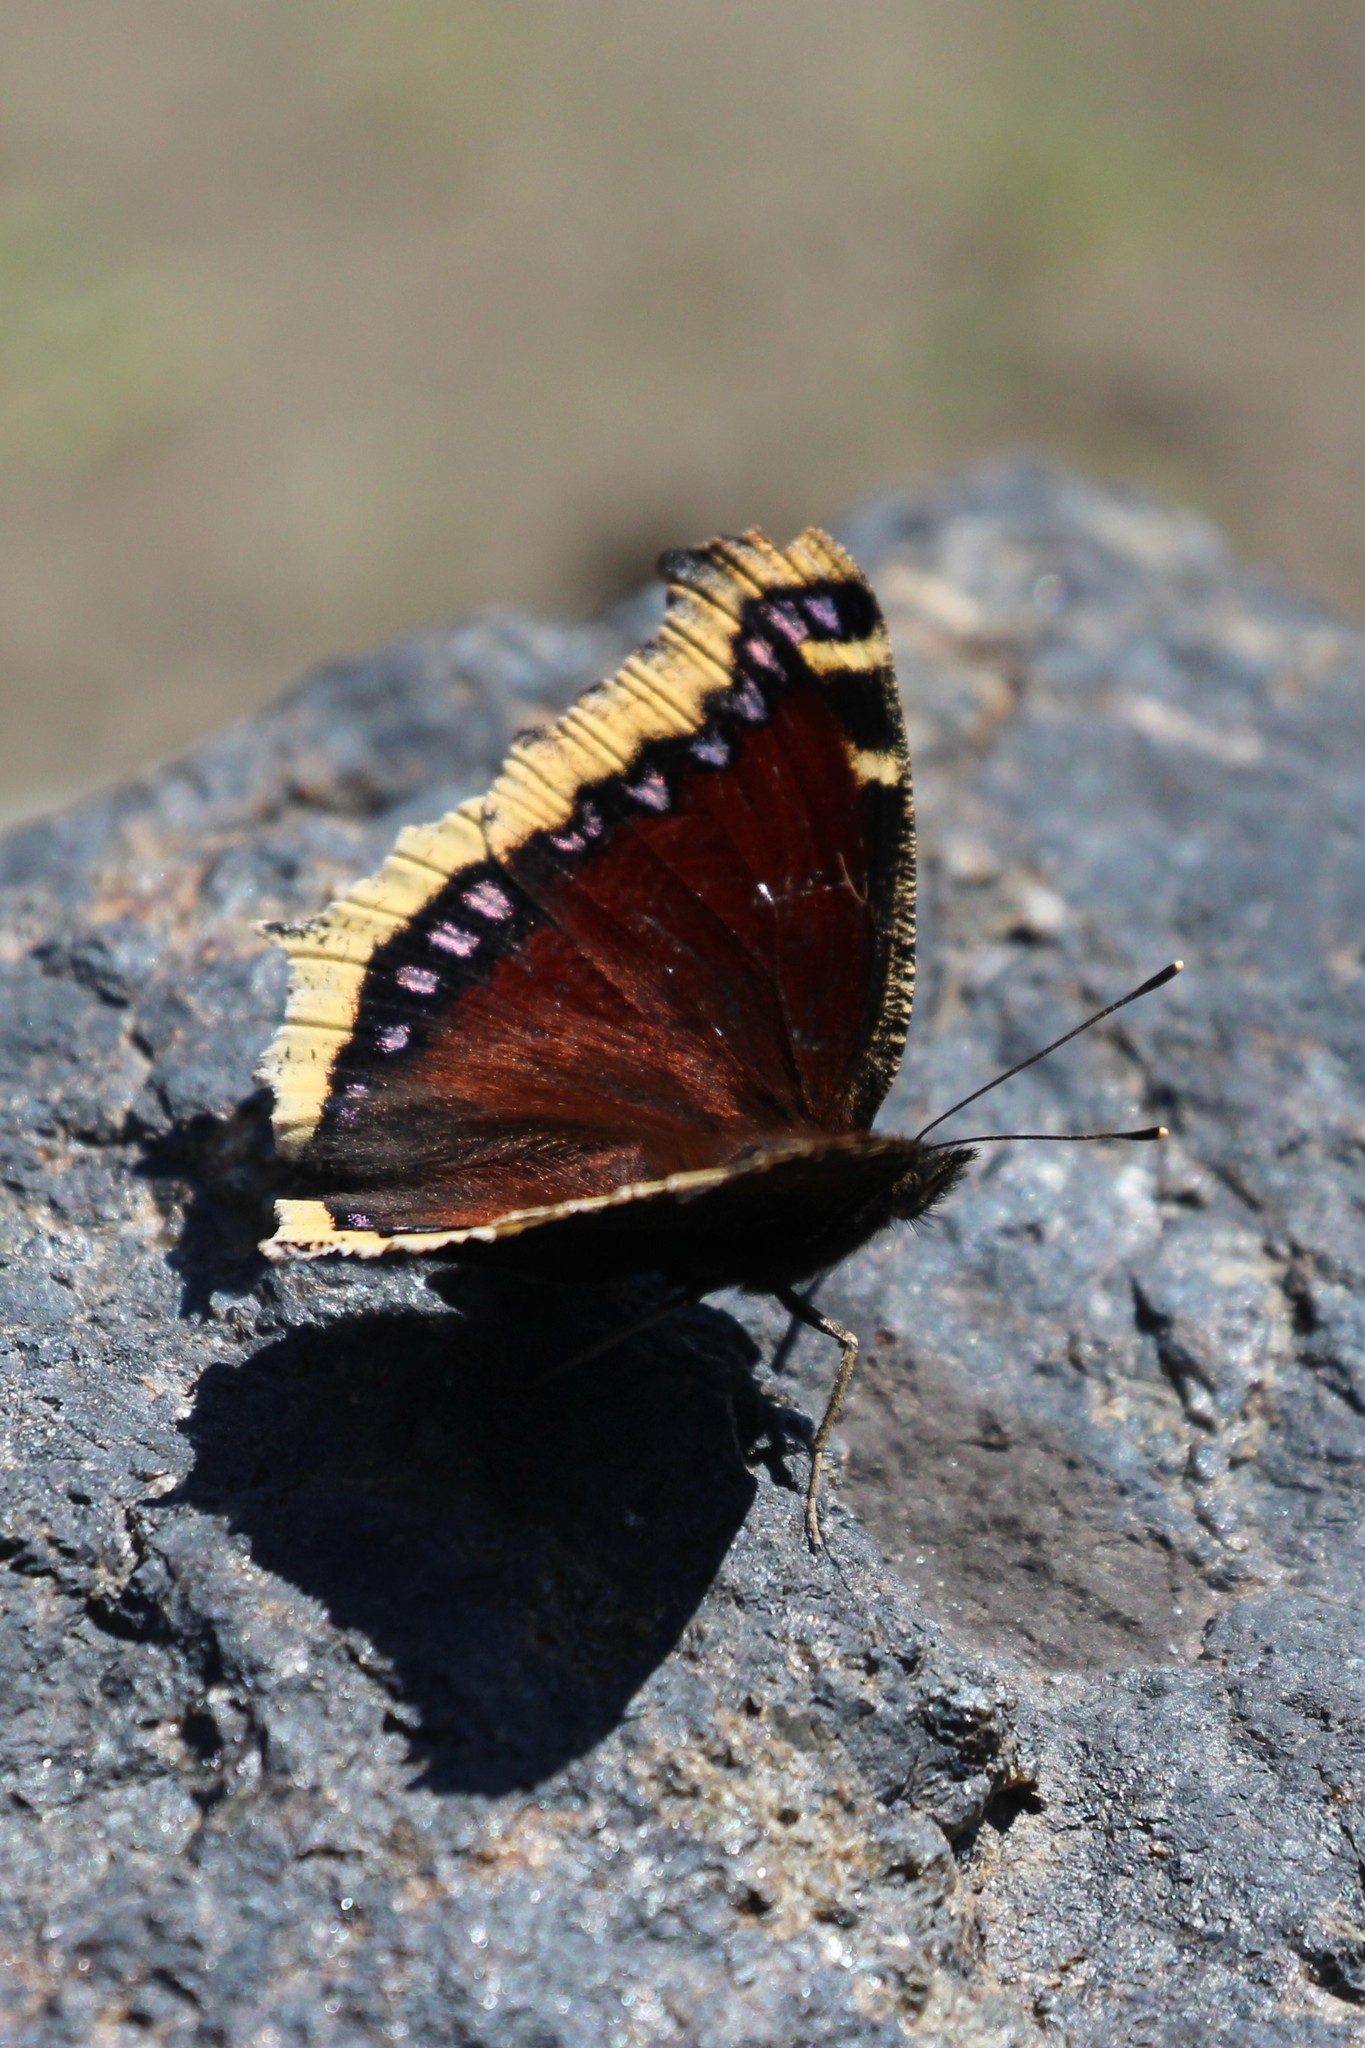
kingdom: Animalia
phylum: Arthropoda
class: Insecta
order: Lepidoptera
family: Nymphalidae
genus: Nymphalis
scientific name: Nymphalis antiopa
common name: Camberwell beauty
